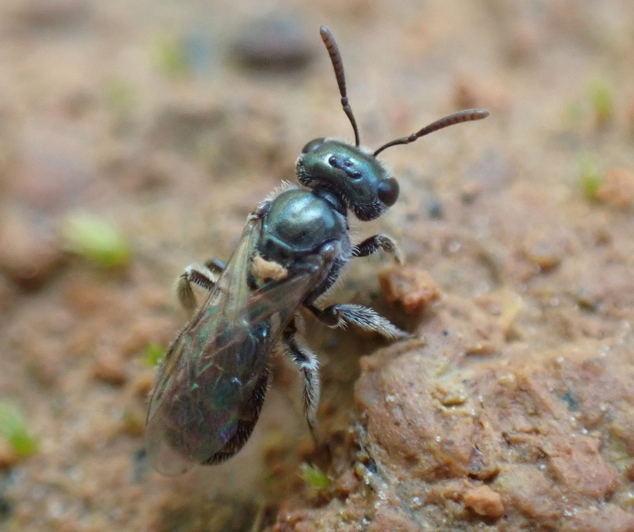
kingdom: Animalia
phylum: Arthropoda
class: Insecta
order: Hymenoptera
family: Halictidae
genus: Lasioglossum
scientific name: Lasioglossum imitatum
